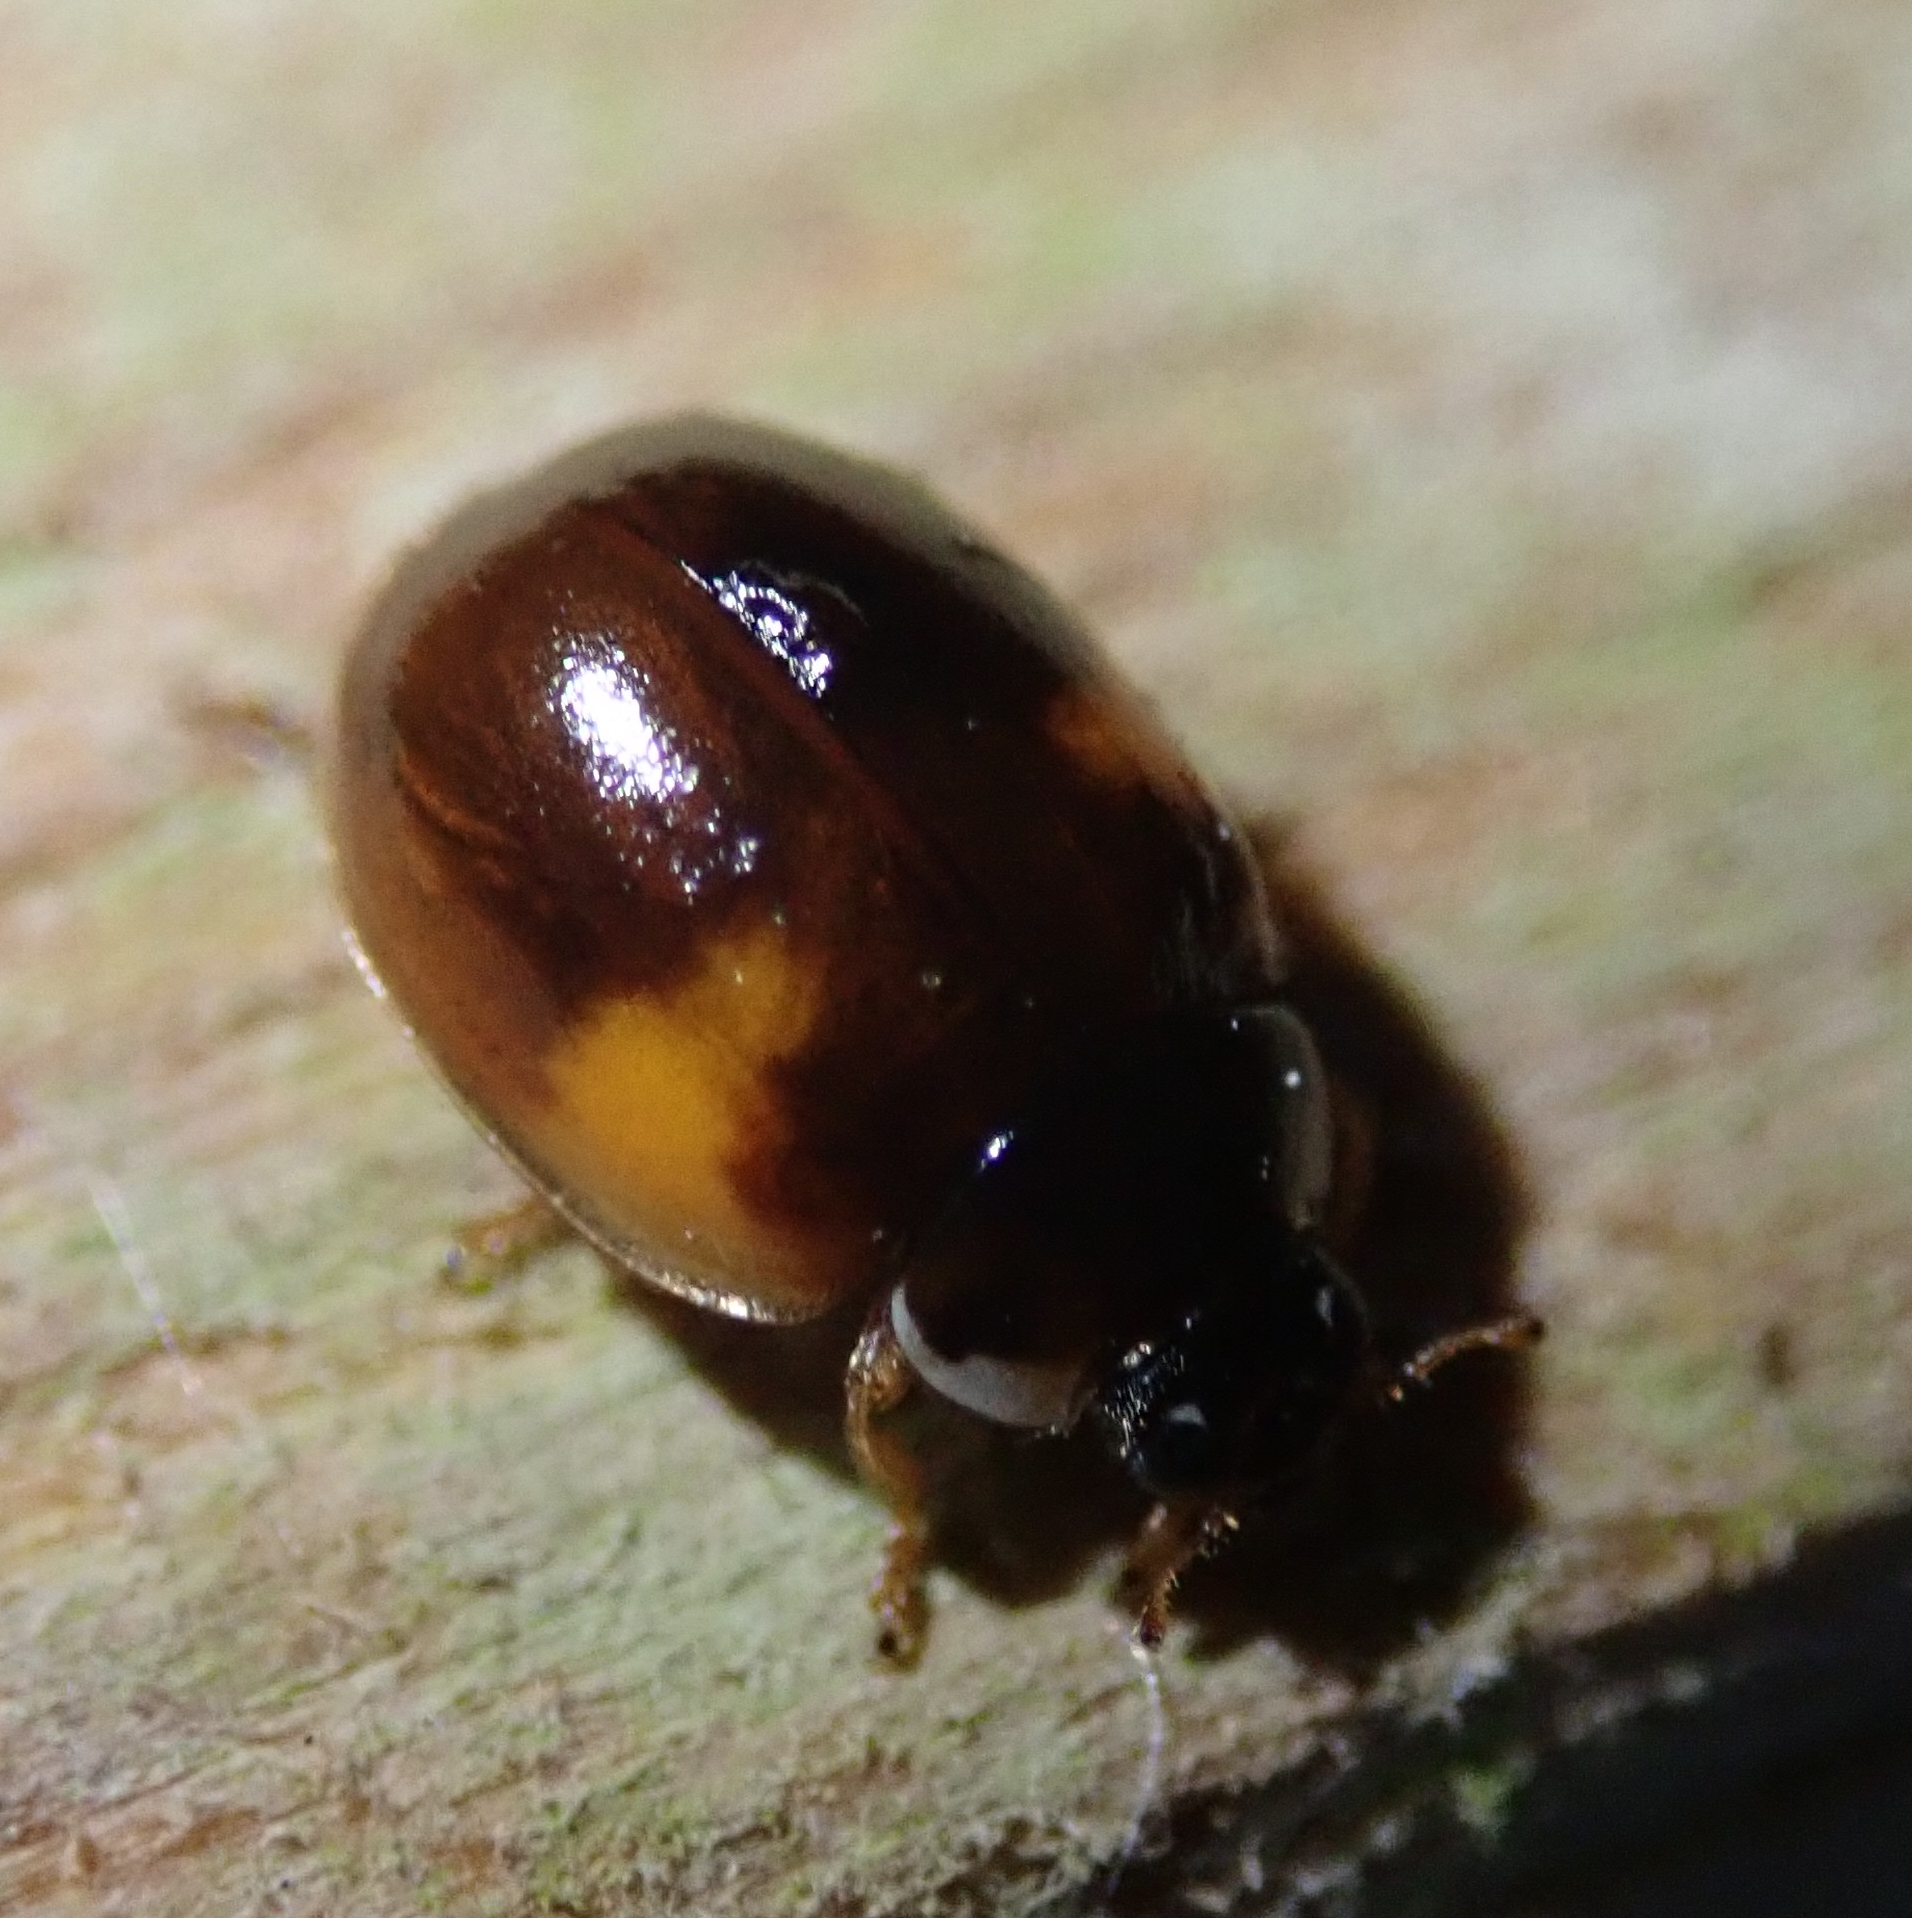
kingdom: Animalia
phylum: Arthropoda
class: Insecta
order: Coleoptera
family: Coccinellidae
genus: Adalia
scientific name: Adalia decempunctata
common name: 10-spot ladybird
